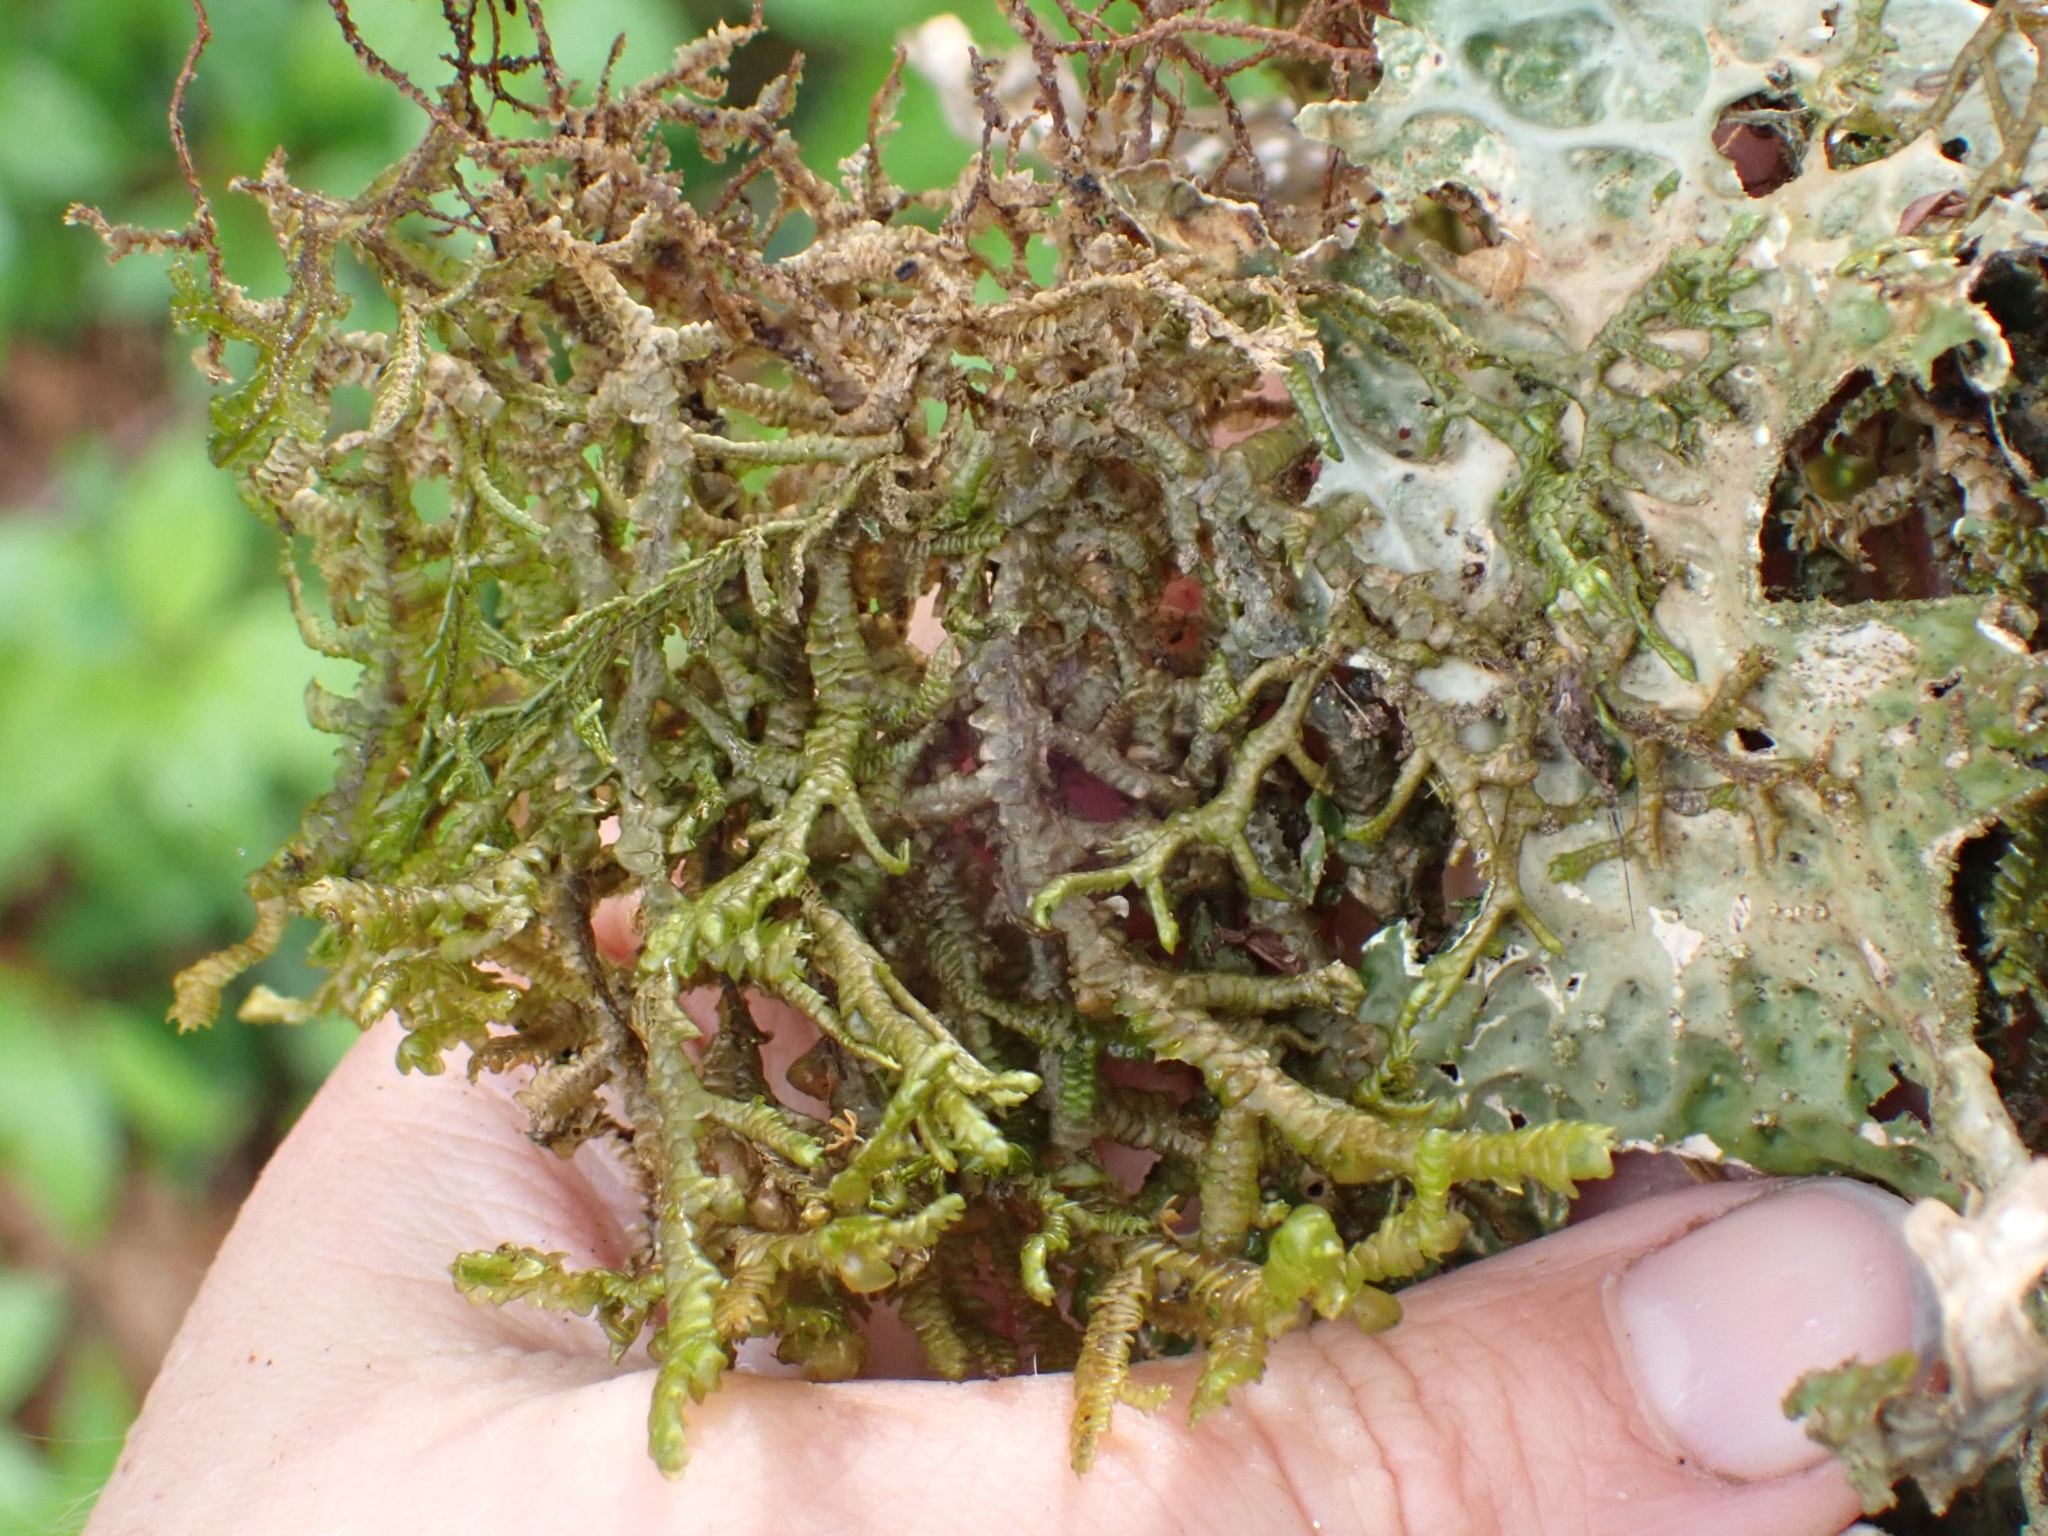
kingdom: Plantae
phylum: Marchantiophyta
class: Jungermanniopsida
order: Porellales
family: Porellaceae
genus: Porella
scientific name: Porella navicularis
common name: Tree ruffle liverwort
